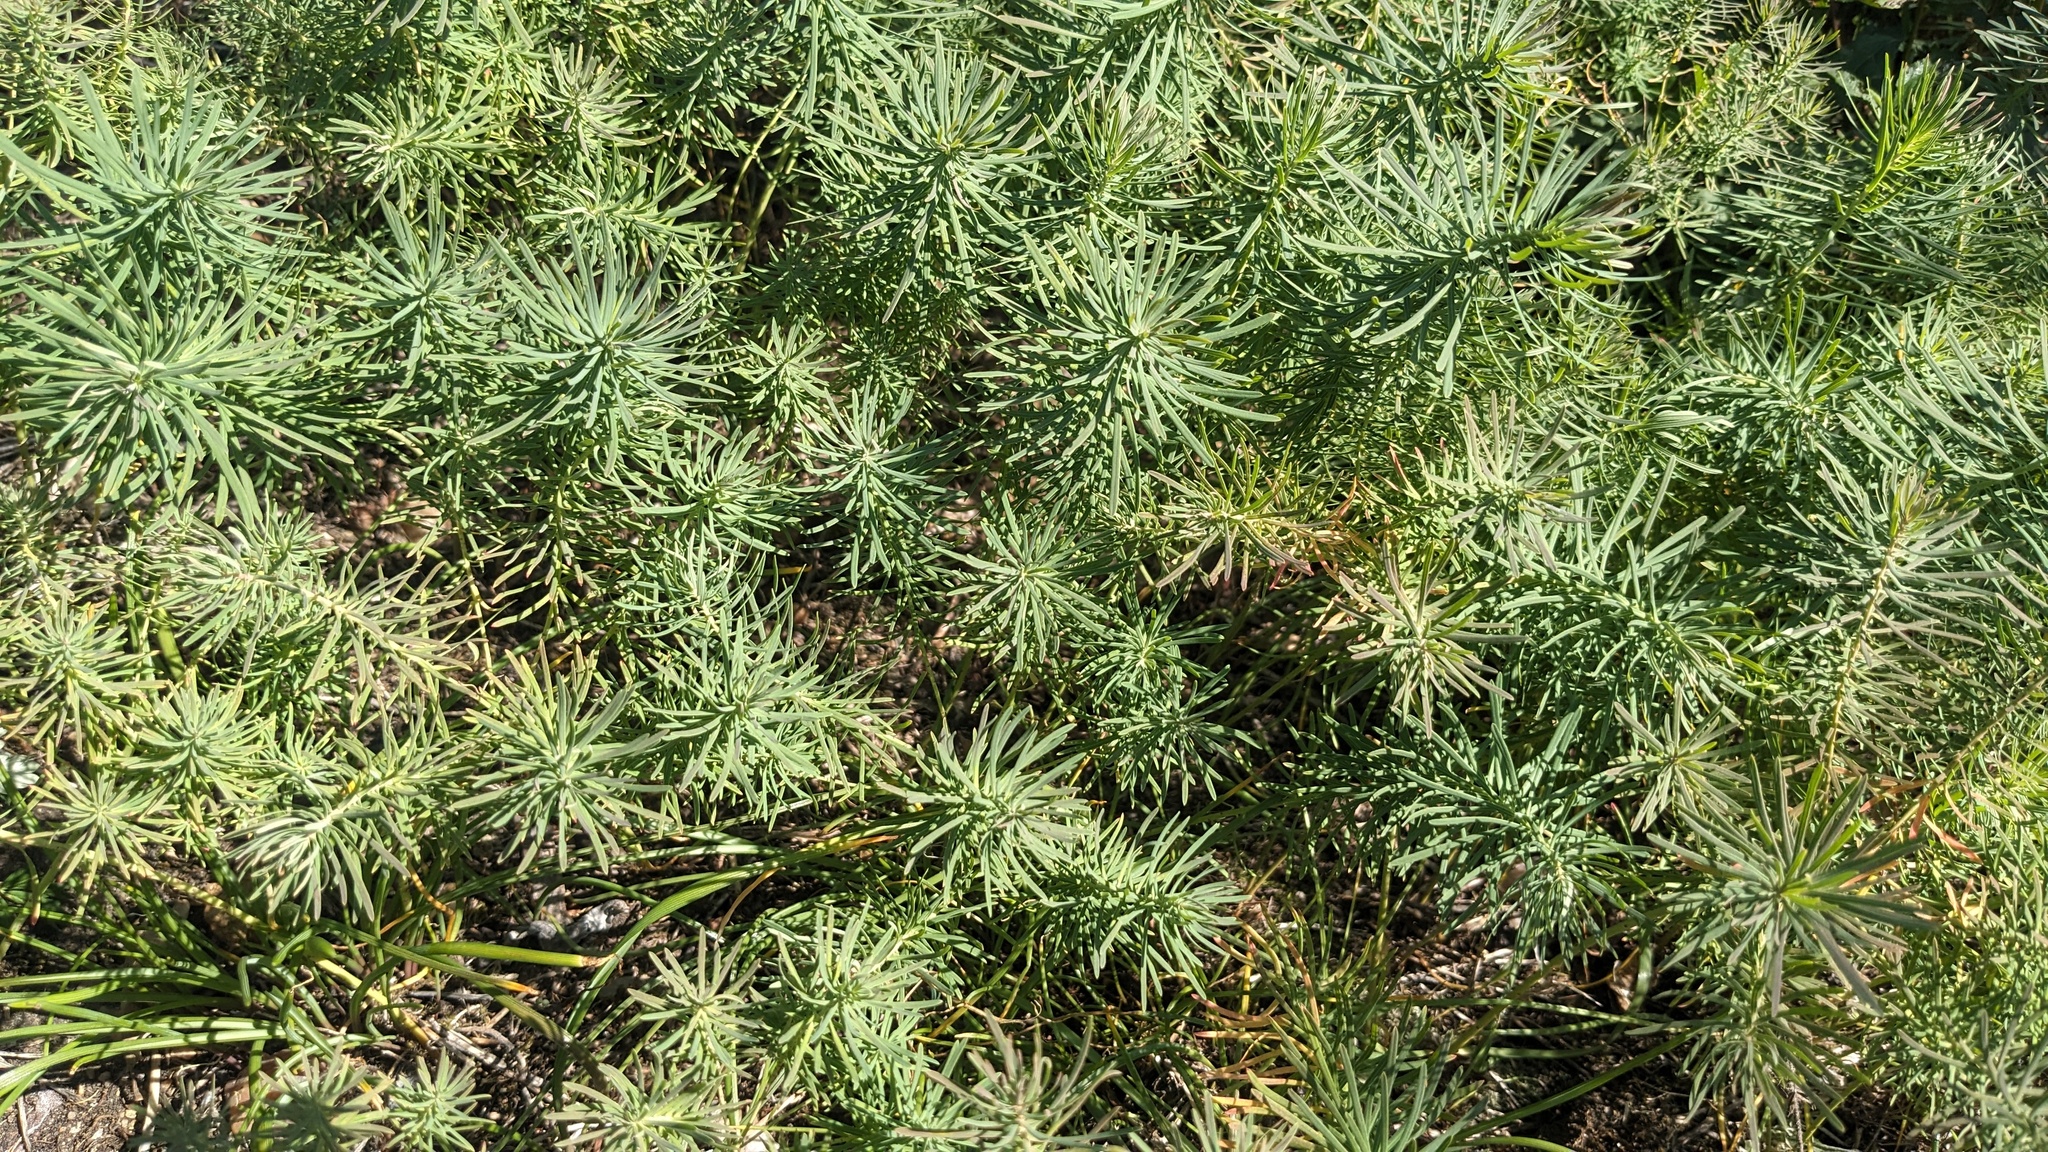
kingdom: Plantae
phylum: Tracheophyta
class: Magnoliopsida
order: Malpighiales
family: Euphorbiaceae
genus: Euphorbia
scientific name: Euphorbia cyparissias
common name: Cypress spurge
